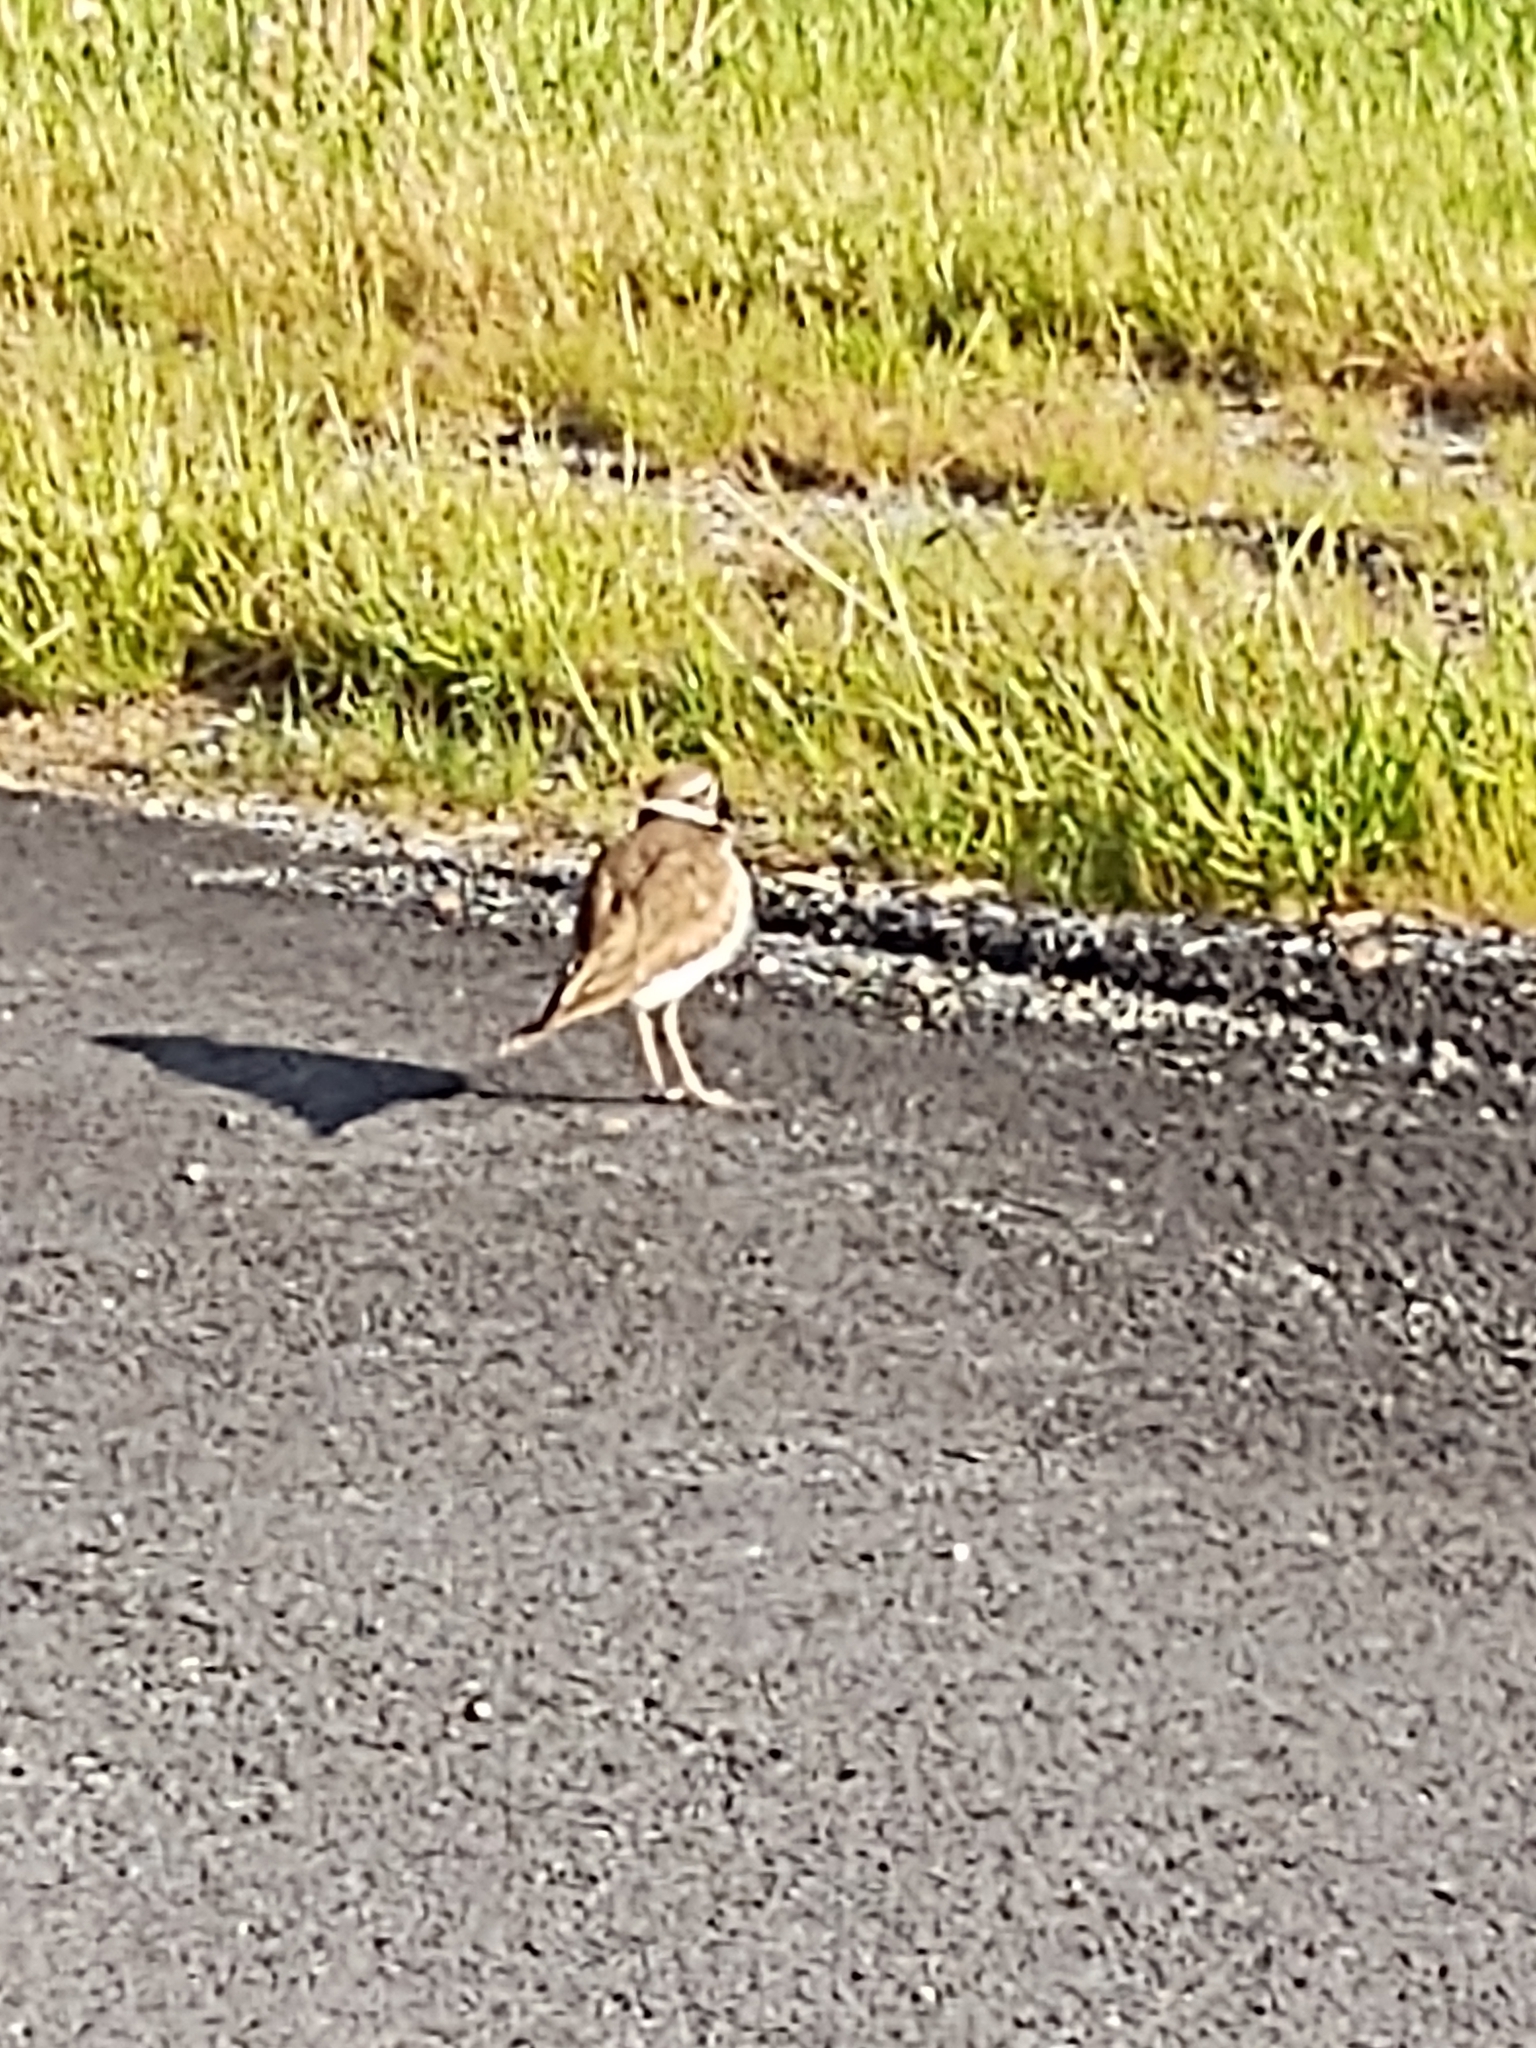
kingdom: Animalia
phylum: Chordata
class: Aves
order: Charadriiformes
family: Charadriidae
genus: Charadrius
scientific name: Charadrius vociferus
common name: Killdeer
